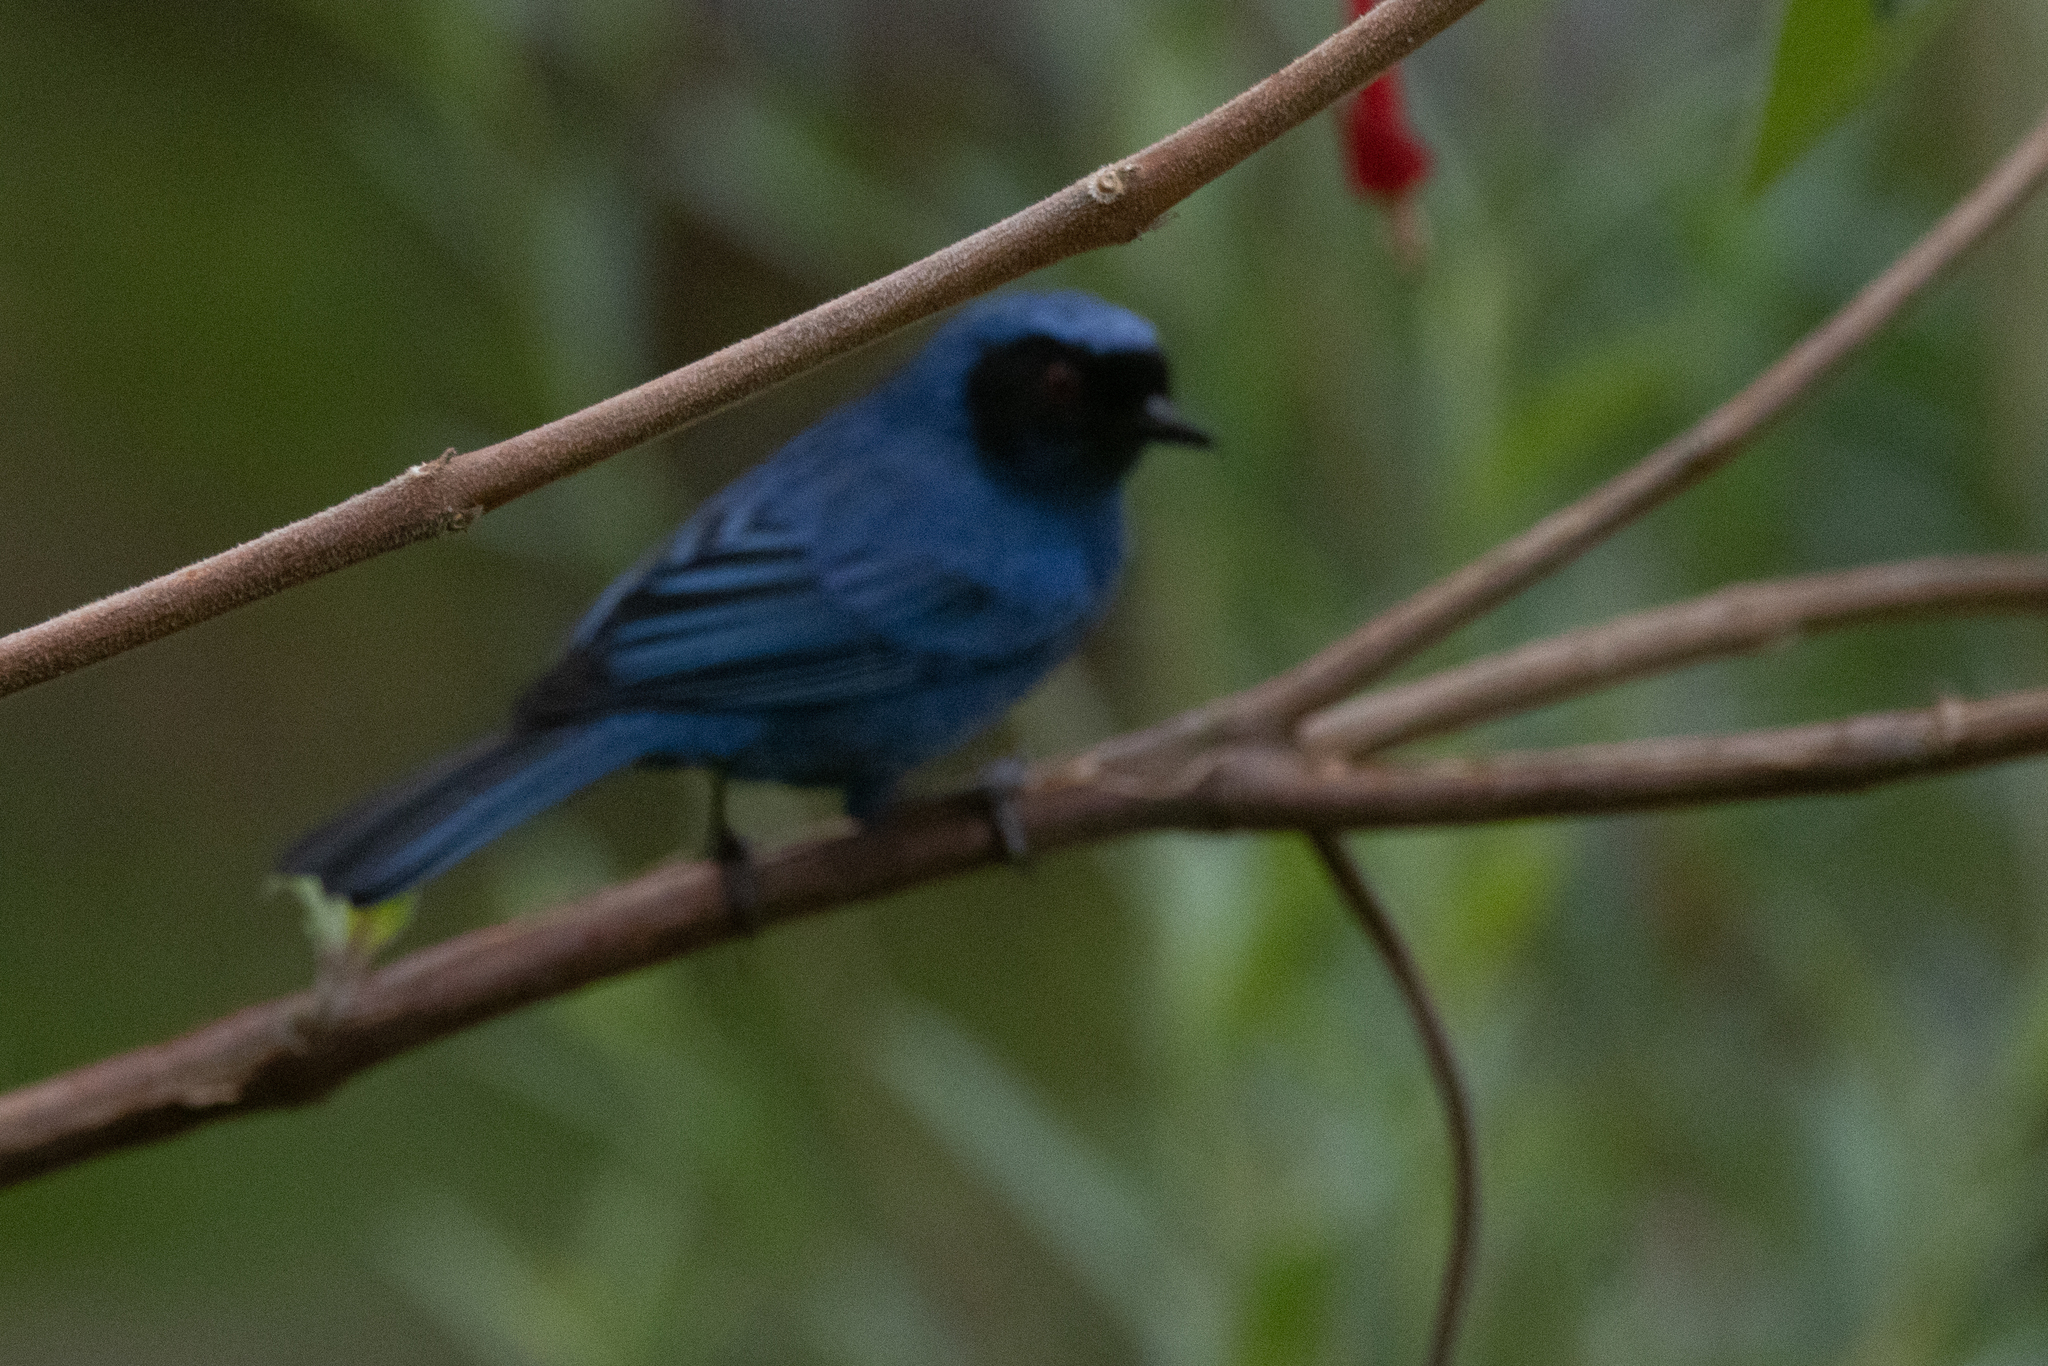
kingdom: Animalia
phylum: Chordata
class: Aves
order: Passeriformes
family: Thraupidae
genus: Diglossa
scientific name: Diglossa cyanea
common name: Masked flowerpiercer
